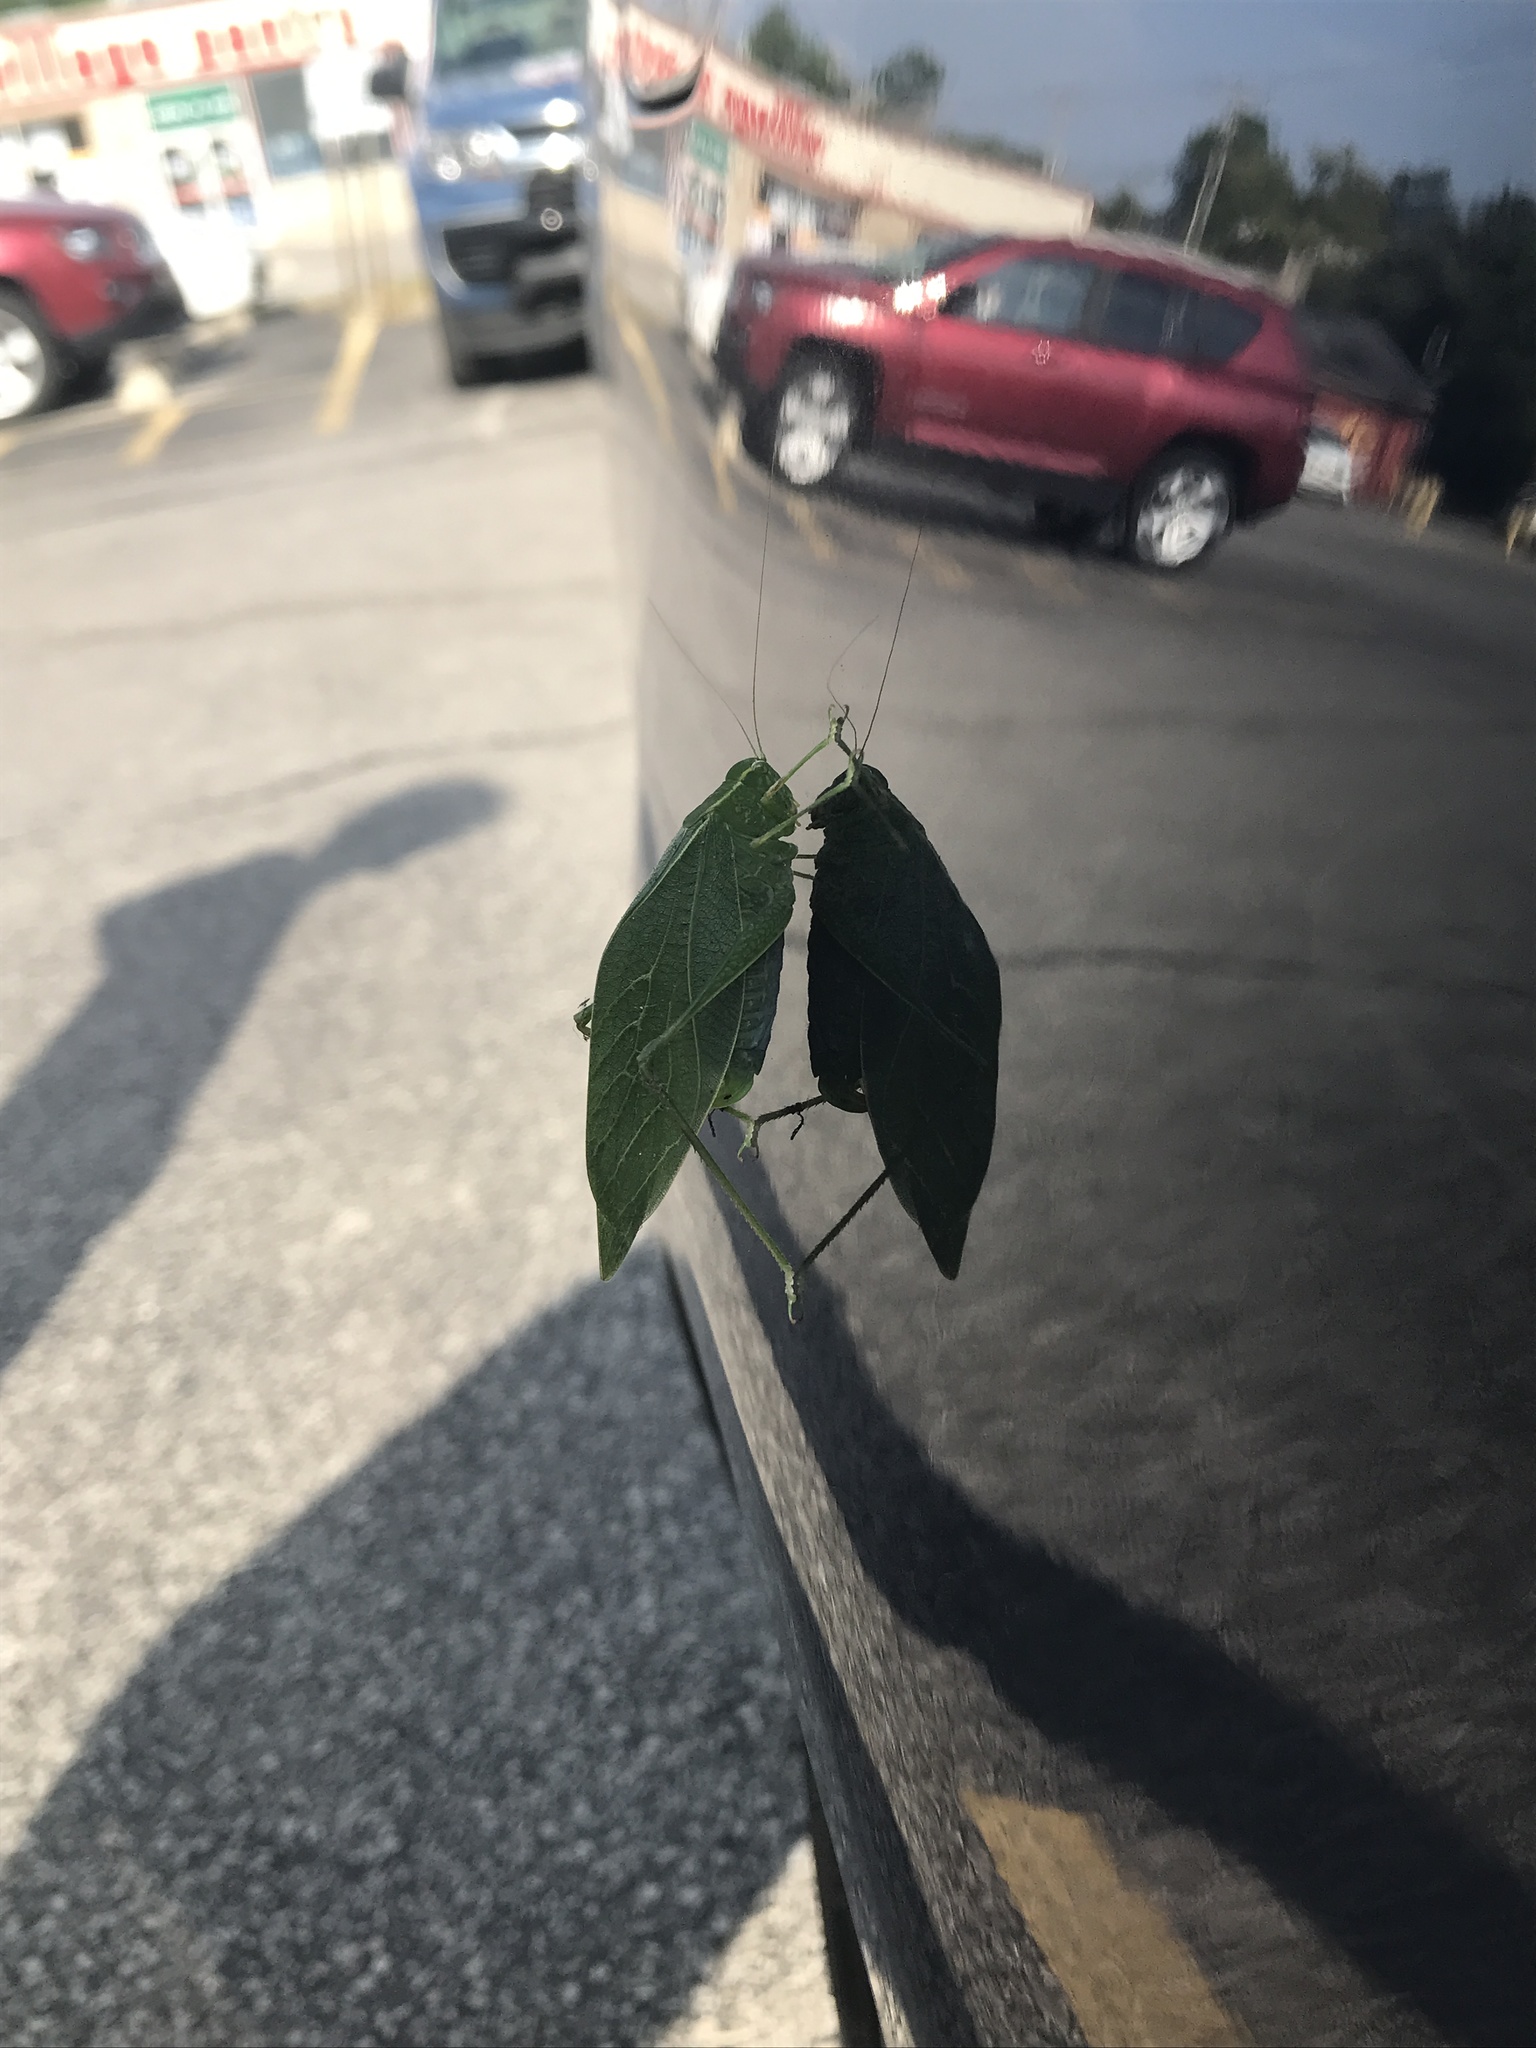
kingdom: Animalia
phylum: Arthropoda
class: Insecta
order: Orthoptera
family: Tettigoniidae
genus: Microcentrum
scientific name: Microcentrum retinerve
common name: Angular-winged katydid
